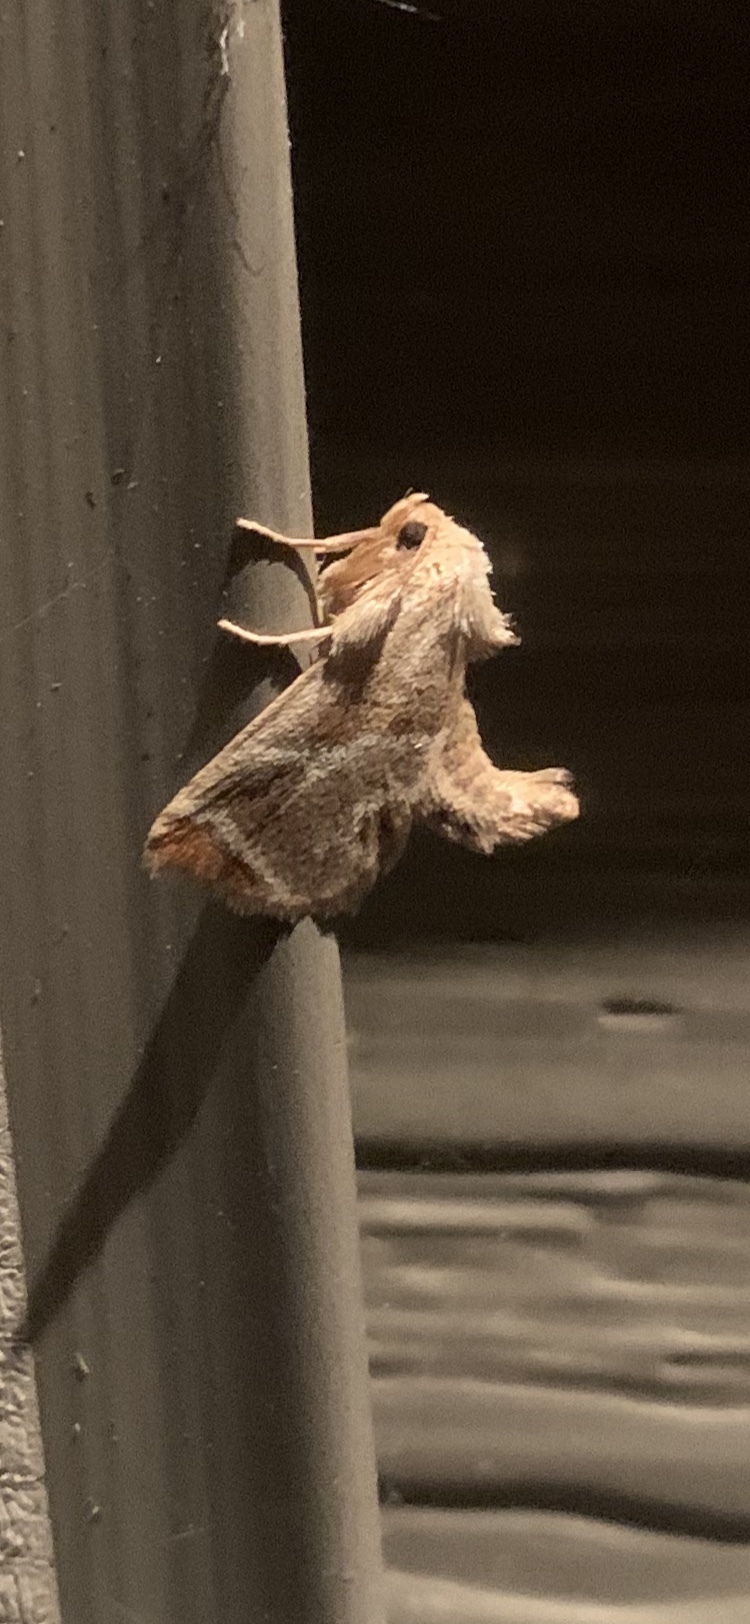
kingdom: Animalia
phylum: Arthropoda
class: Insecta
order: Lepidoptera
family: Limacodidae
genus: Apoda
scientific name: Apoda biguttata
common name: Shagreened slug moth
